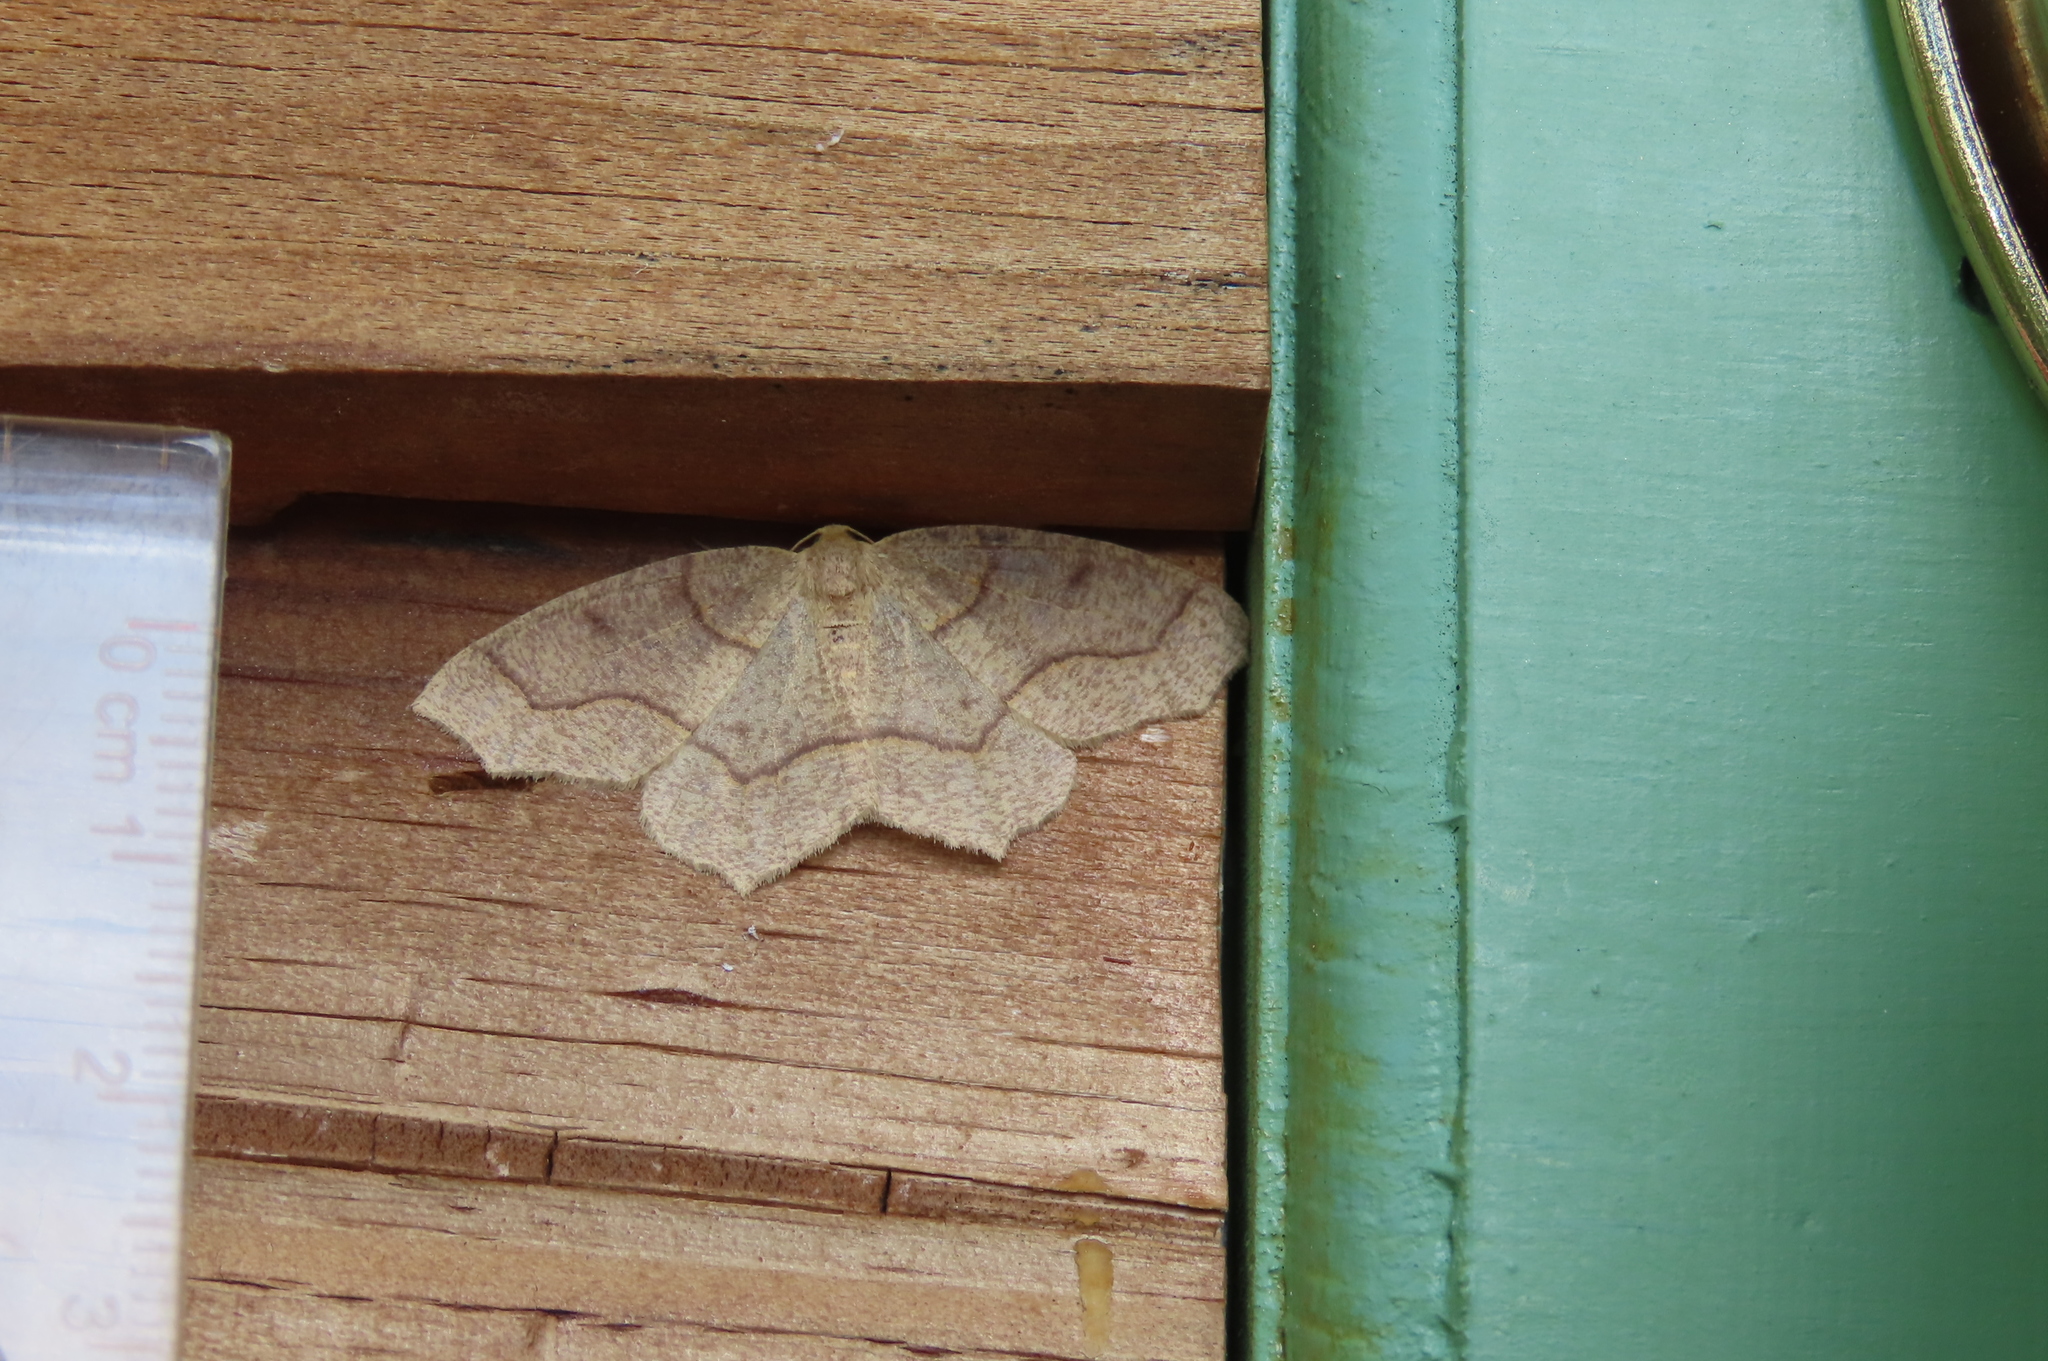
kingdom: Animalia
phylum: Arthropoda
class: Insecta
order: Lepidoptera
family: Geometridae
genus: Lambdina
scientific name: Lambdina fiscellaria
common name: Hemlock looper
